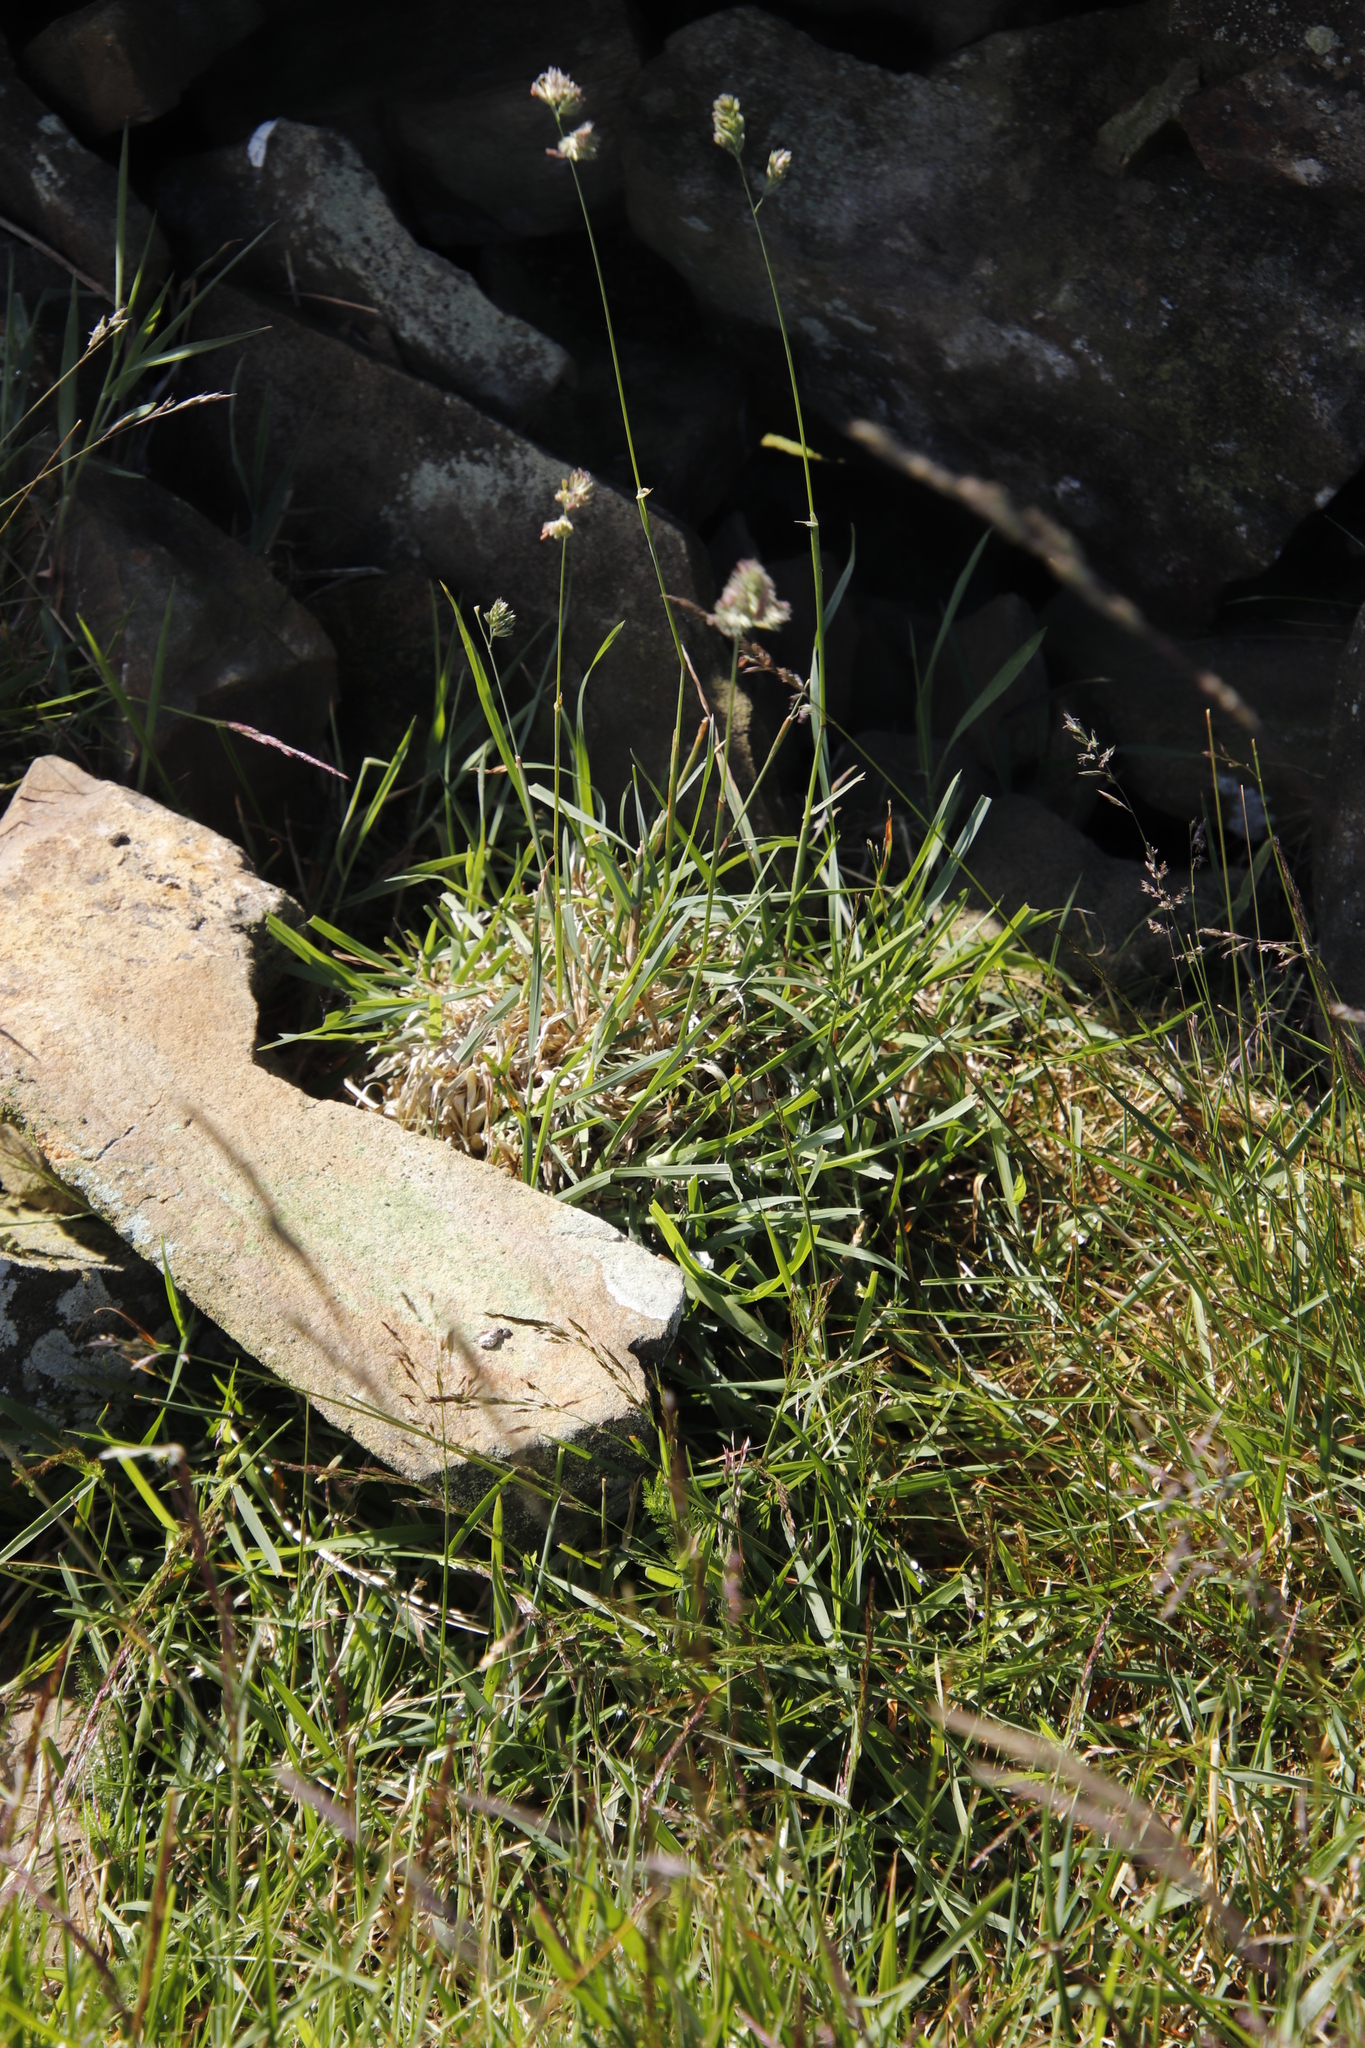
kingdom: Plantae
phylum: Tracheophyta
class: Liliopsida
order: Poales
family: Poaceae
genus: Dactylis
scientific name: Dactylis glomerata
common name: Orchardgrass
